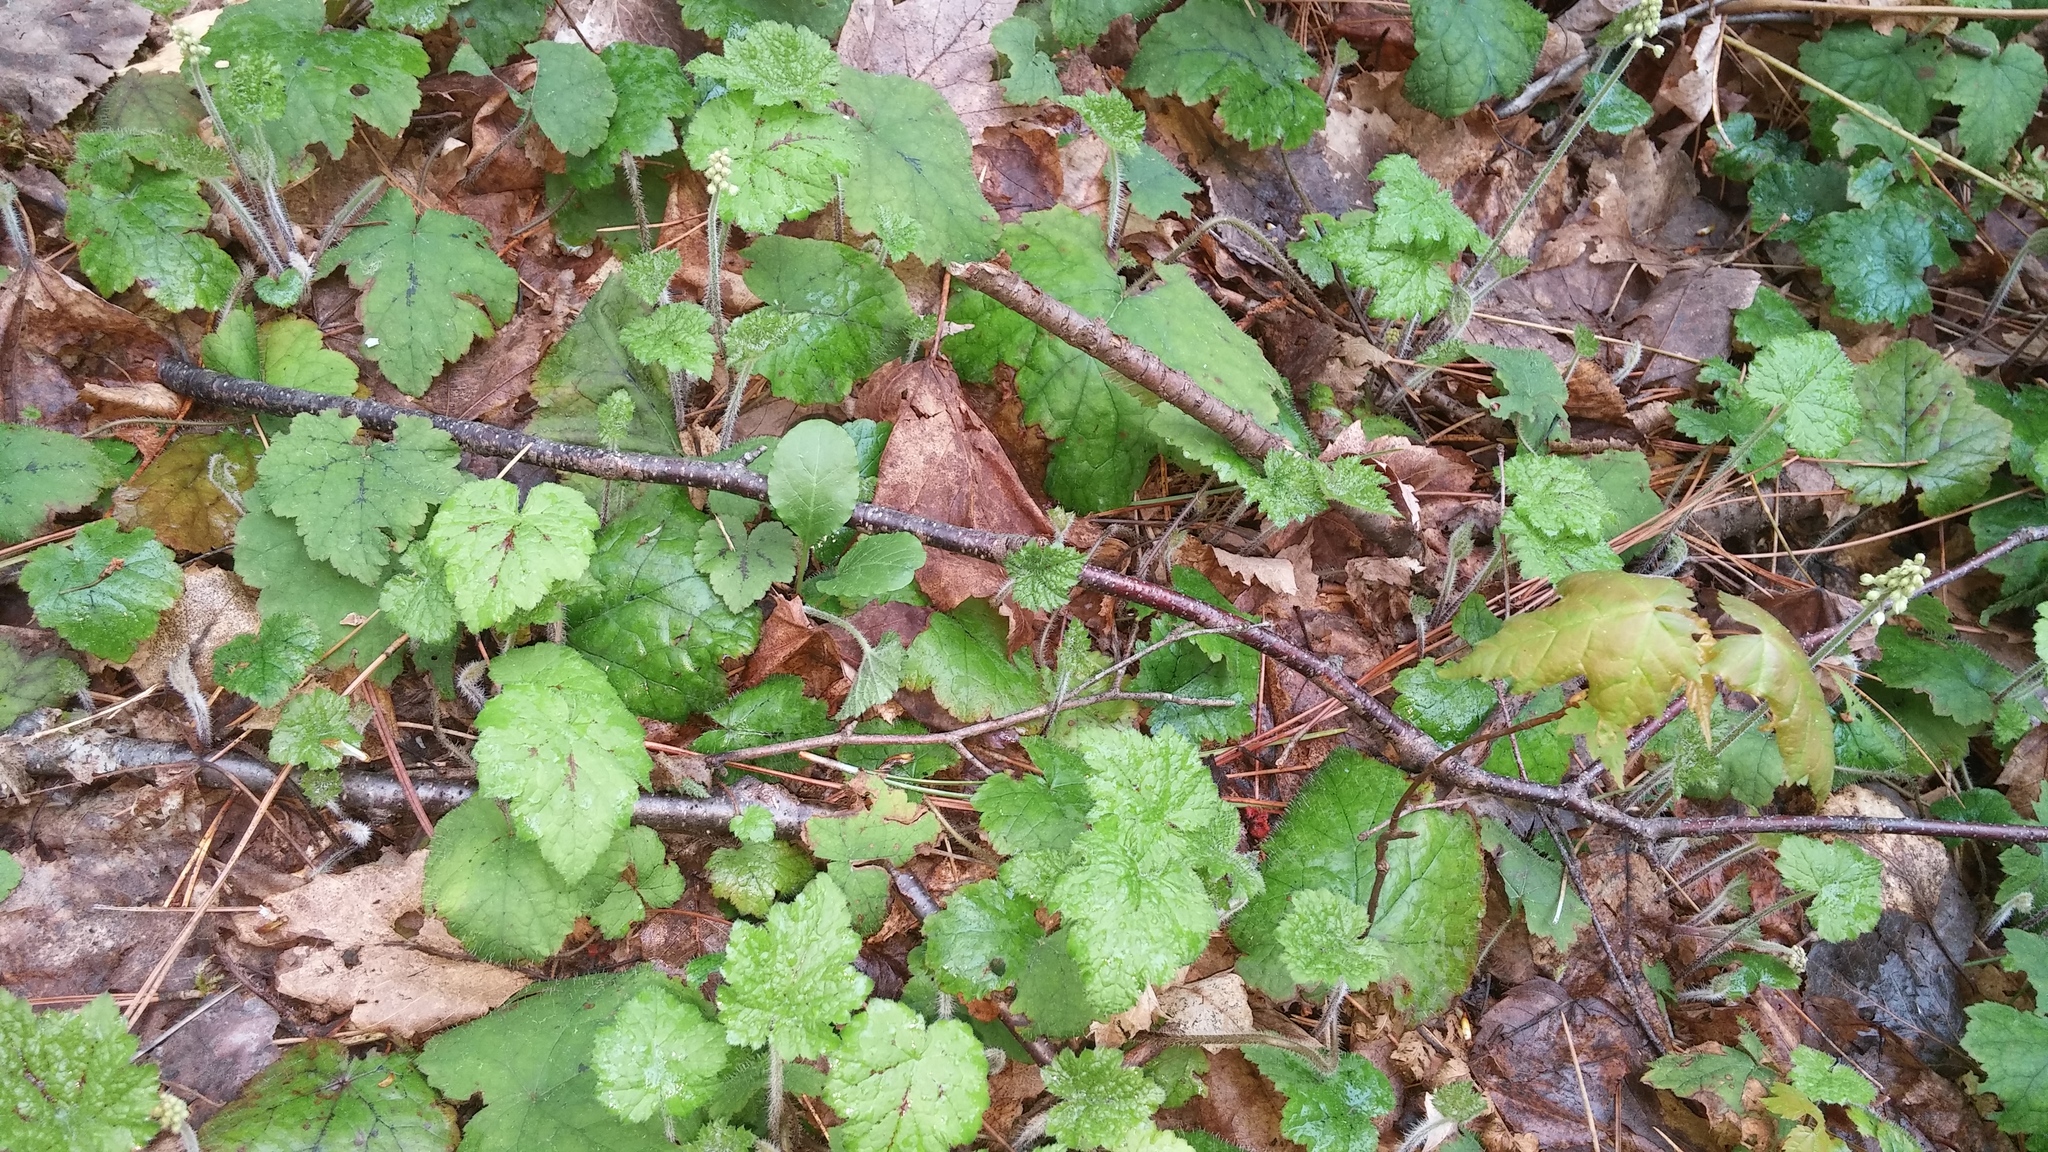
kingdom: Plantae
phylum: Tracheophyta
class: Magnoliopsida
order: Saxifragales
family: Saxifragaceae
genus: Tiarella
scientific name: Tiarella stolonifera
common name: Stoloniferous foamflower
